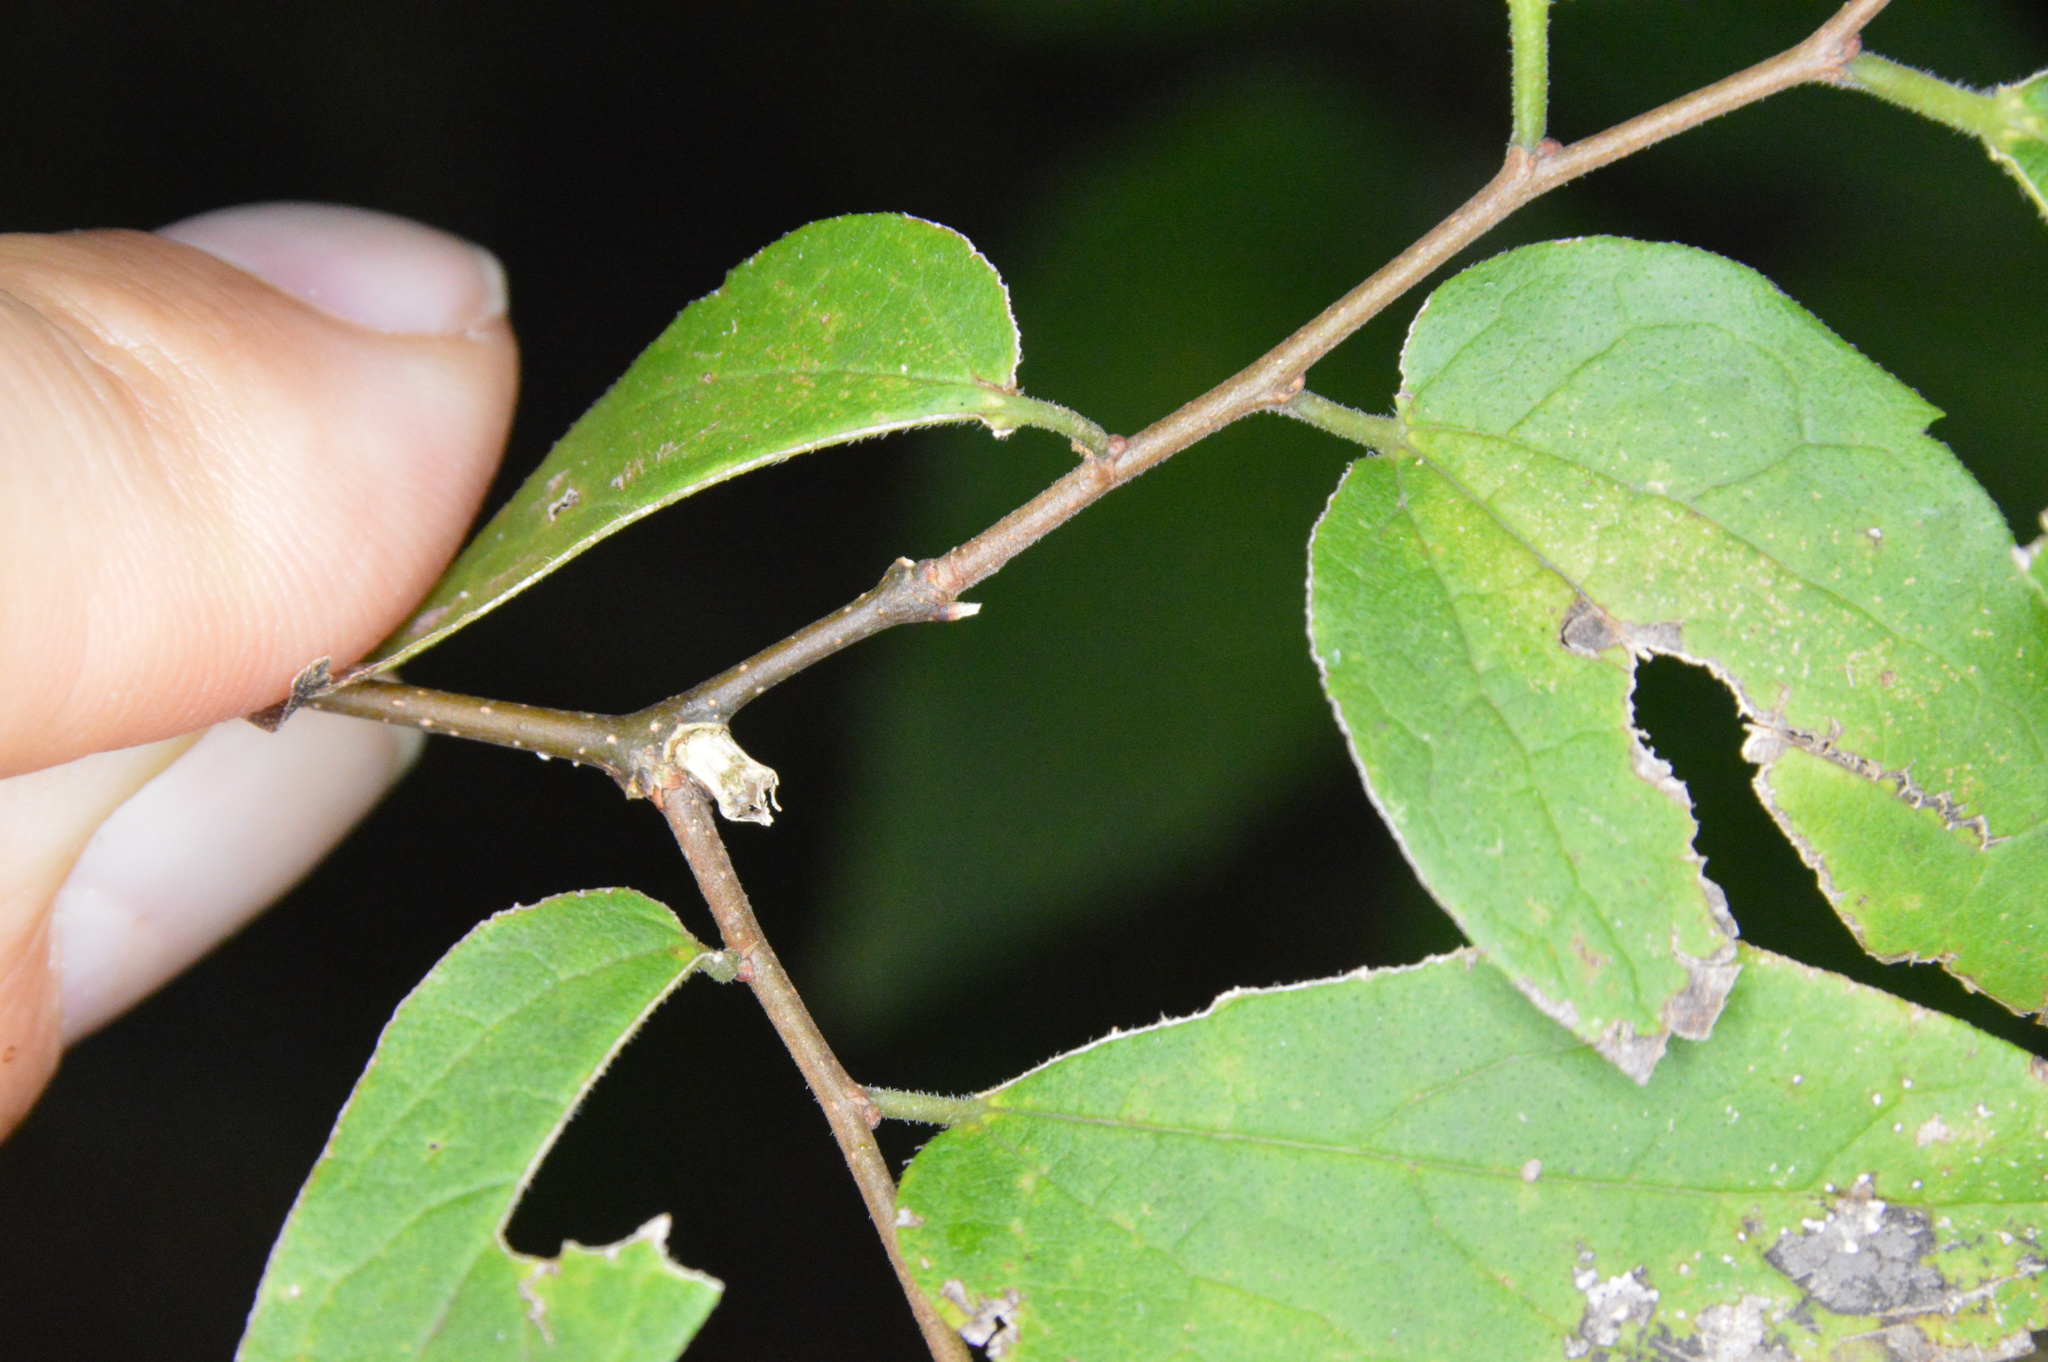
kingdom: Animalia
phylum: Arthropoda
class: Insecta
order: Diptera
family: Cecidomyiidae
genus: Celticecis
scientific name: Celticecis ramicola
